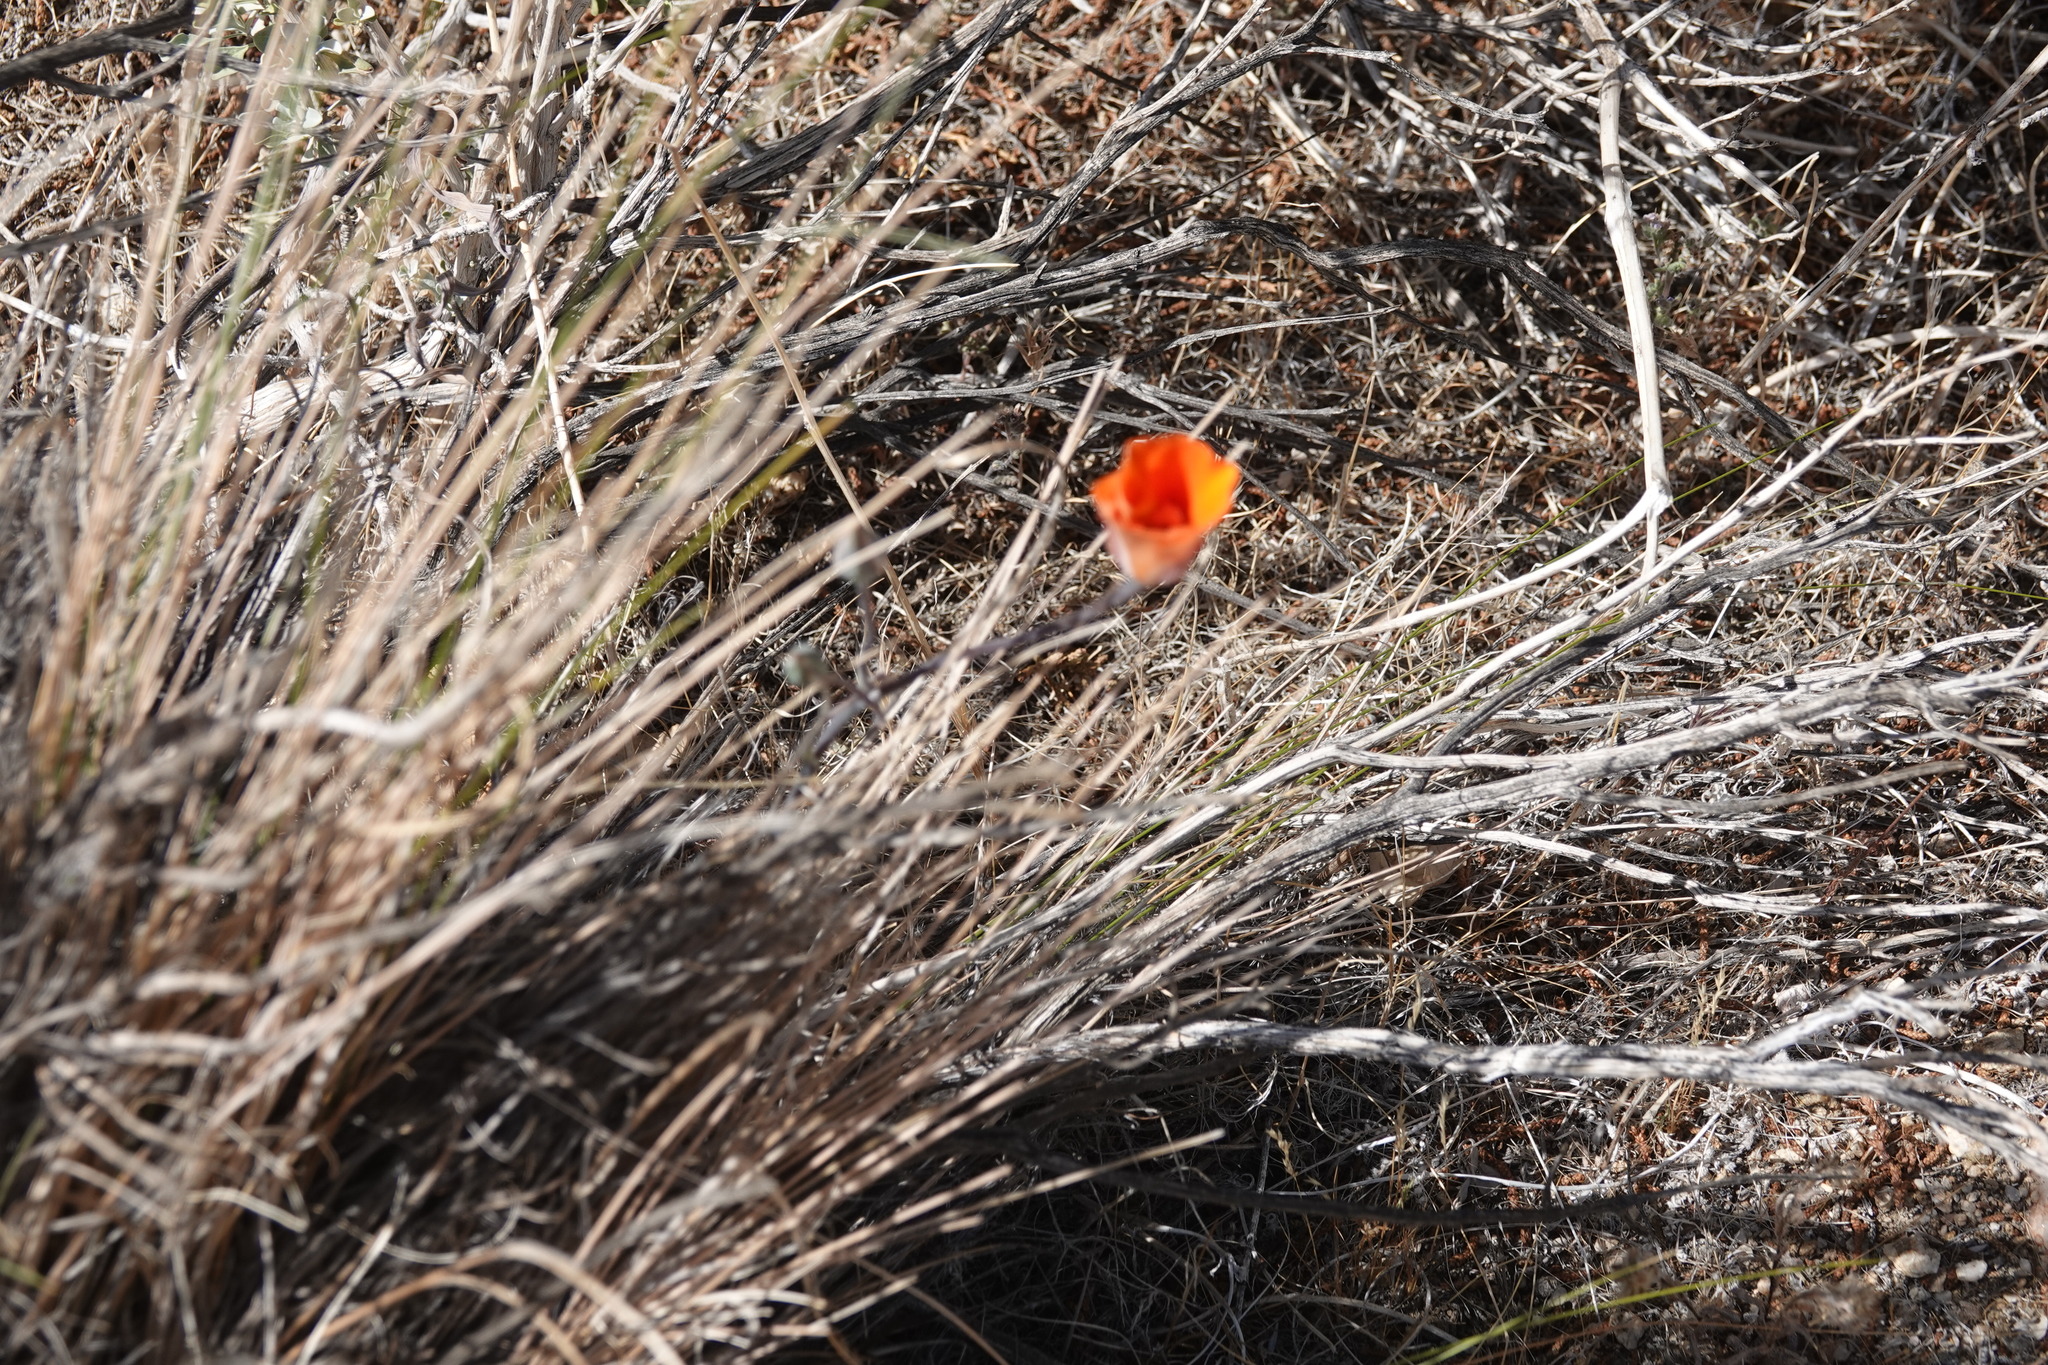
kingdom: Plantae
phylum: Tracheophyta
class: Liliopsida
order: Liliales
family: Liliaceae
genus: Calochortus
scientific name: Calochortus kennedyi
